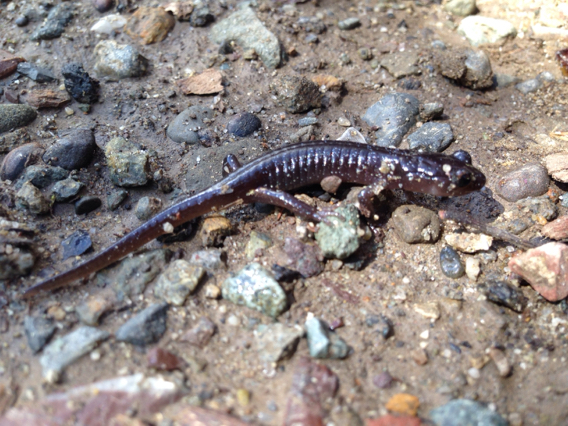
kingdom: Animalia
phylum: Chordata
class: Amphibia
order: Caudata
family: Plethodontidae
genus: Aneides
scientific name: Aneides lugubris
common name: Arboreal salamander
